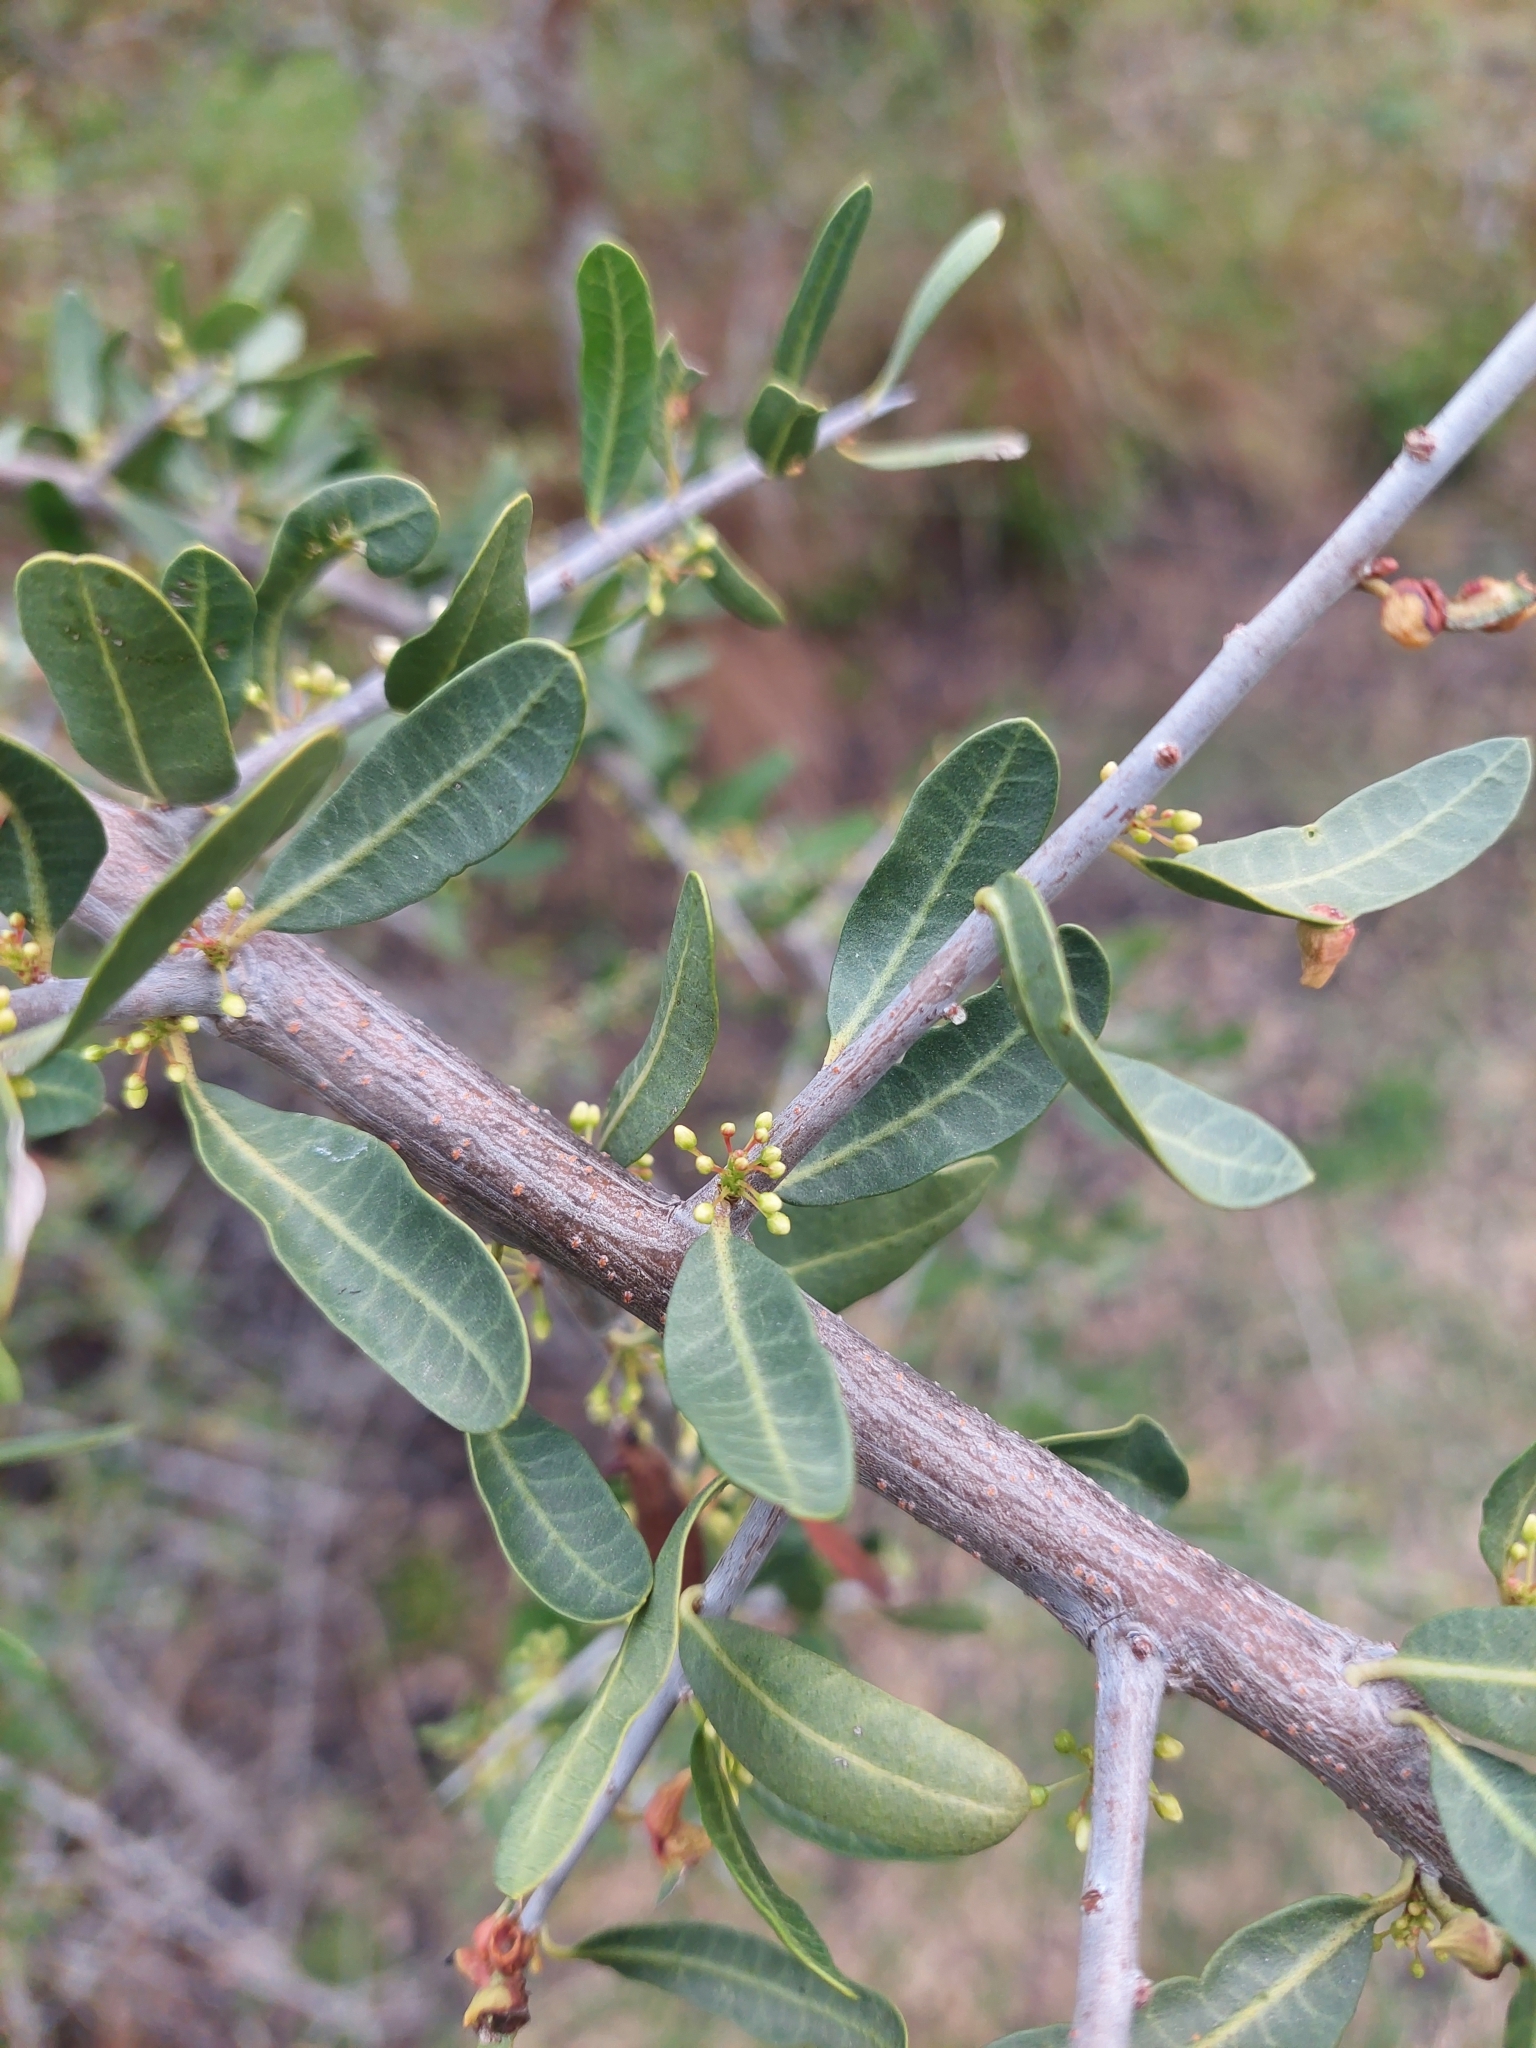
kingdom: Plantae
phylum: Tracheophyta
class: Magnoliopsida
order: Sapindales
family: Anacardiaceae
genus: Schinus
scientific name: Schinus longifolia
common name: Longleaf peppertree
